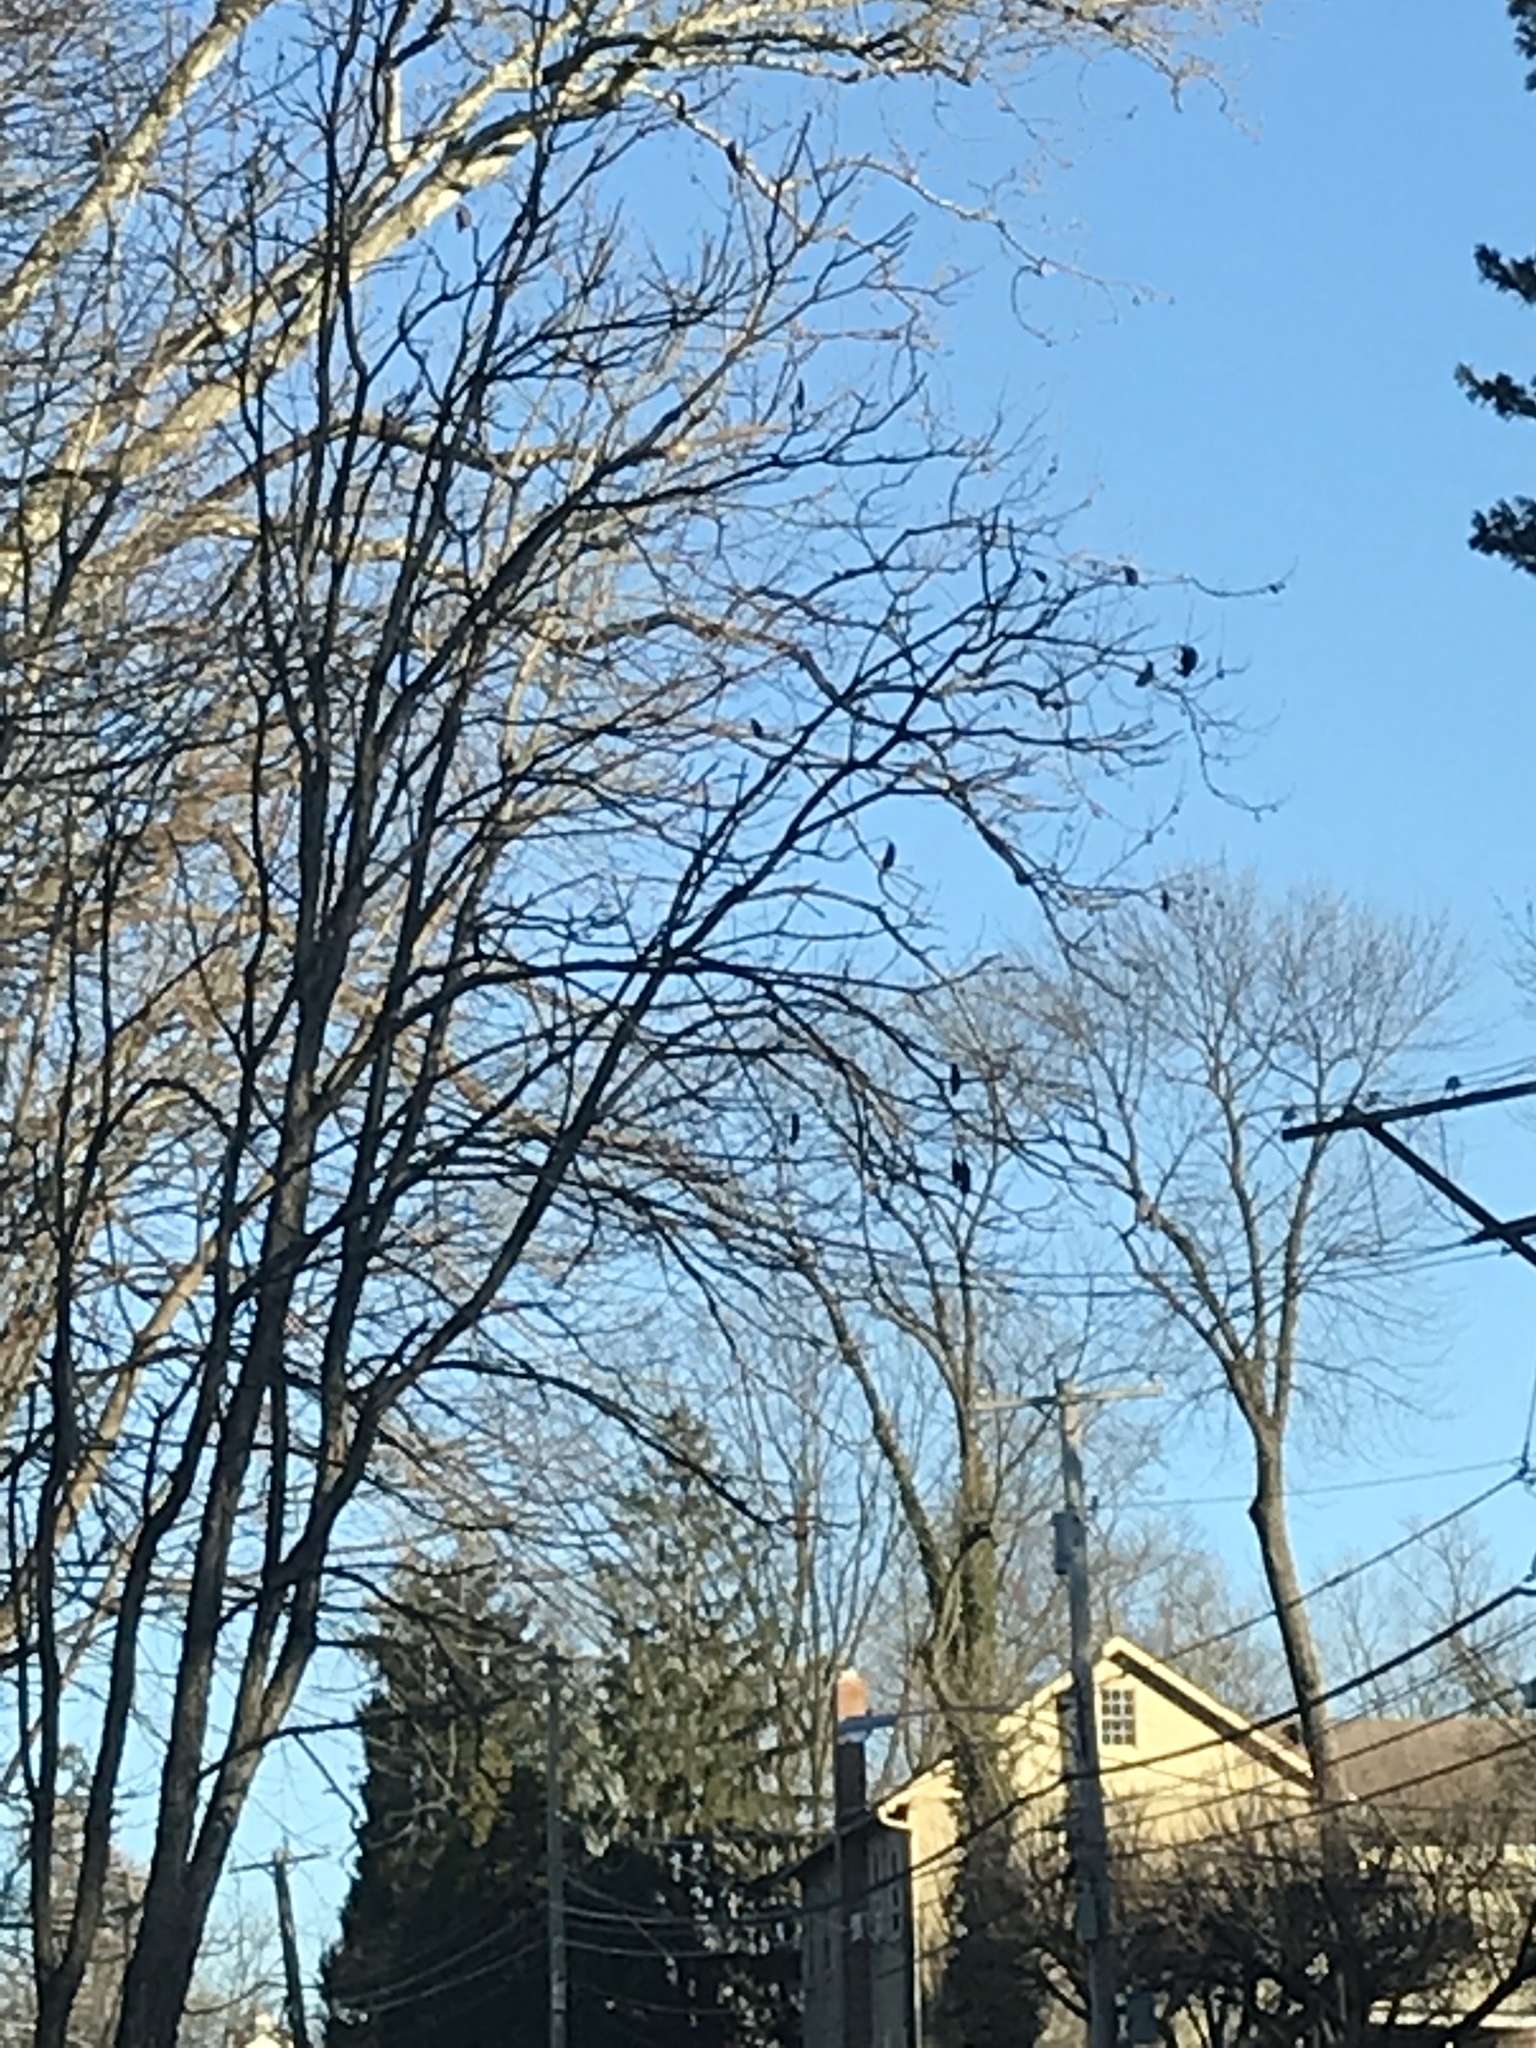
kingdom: Plantae
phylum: Tracheophyta
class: Magnoliopsida
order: Fabales
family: Fabaceae
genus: Gymnocladus
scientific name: Gymnocladus dioicus
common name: Kentucky coffee-tree
